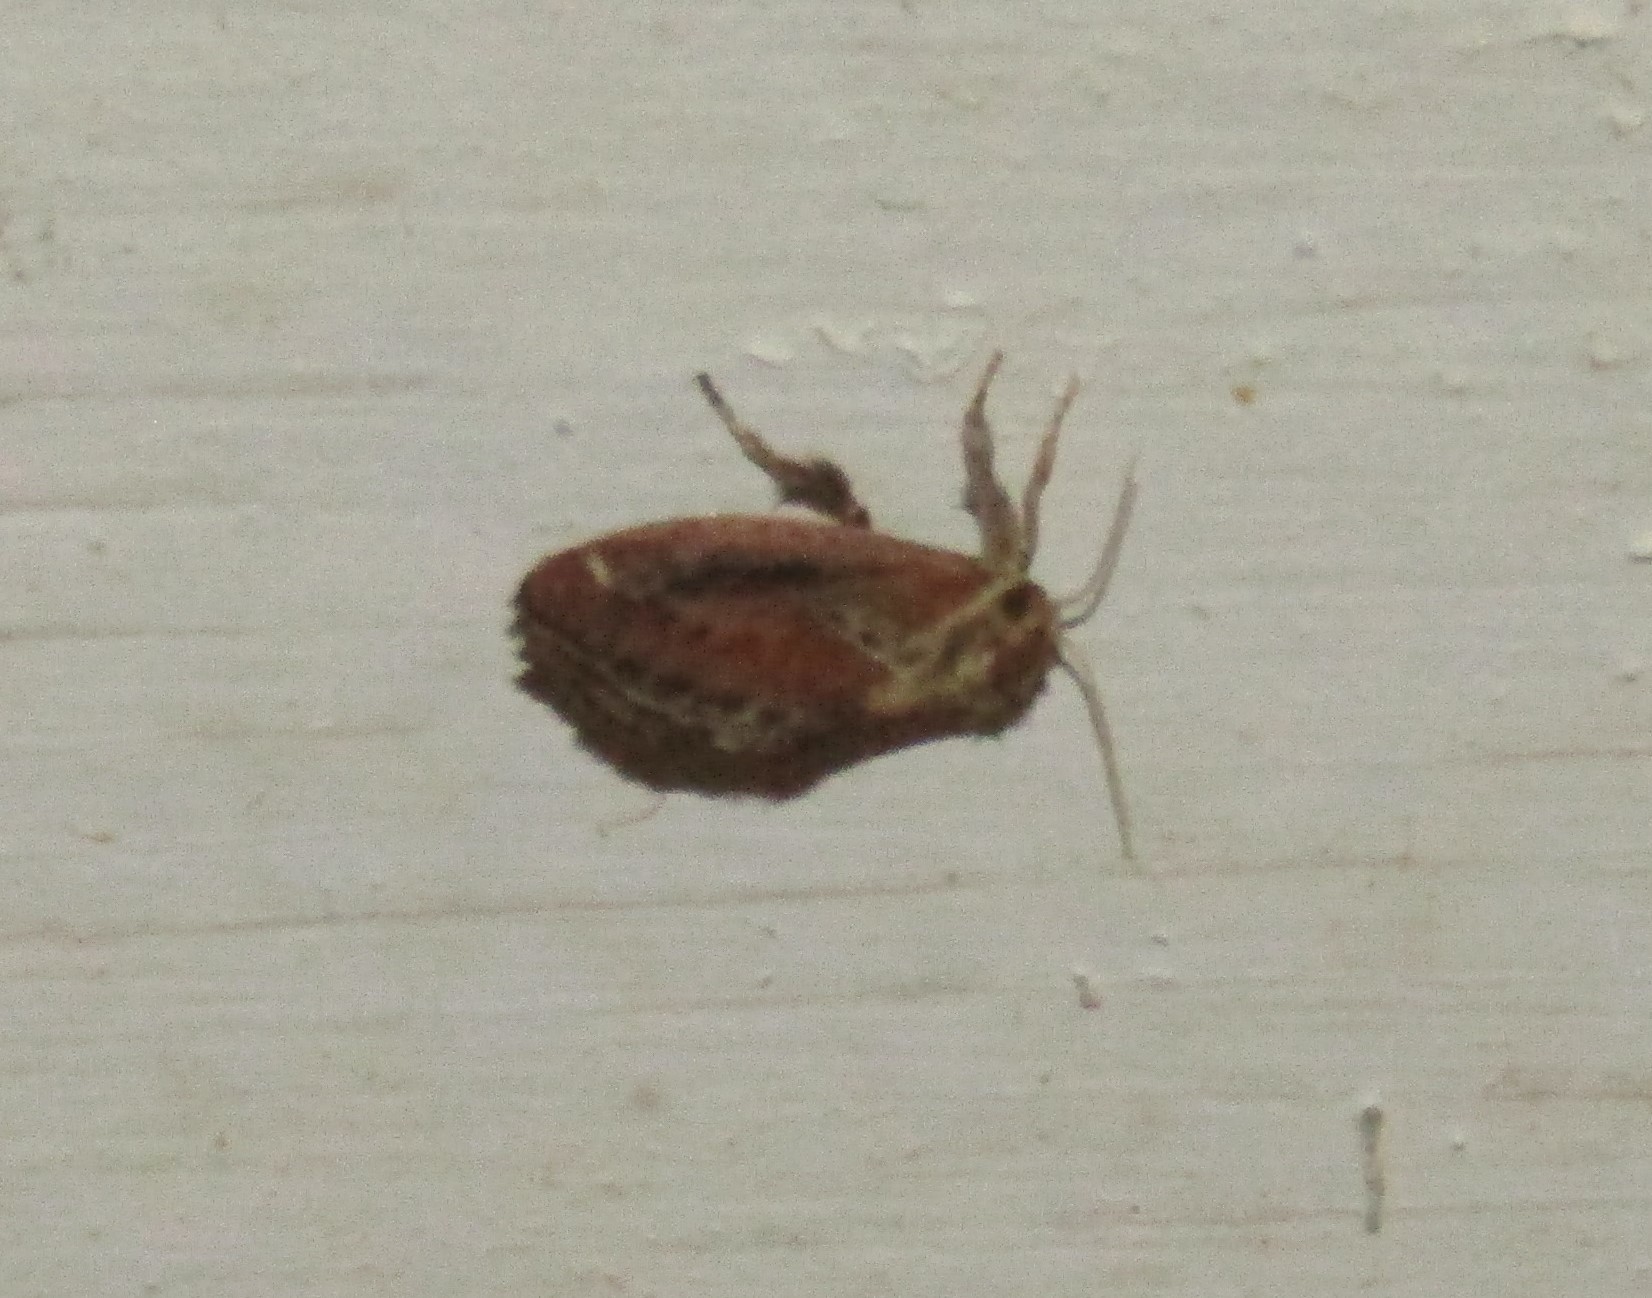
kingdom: Animalia
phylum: Arthropoda
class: Insecta
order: Lepidoptera
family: Limacodidae
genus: Adoneta
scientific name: Adoneta spinuloides
